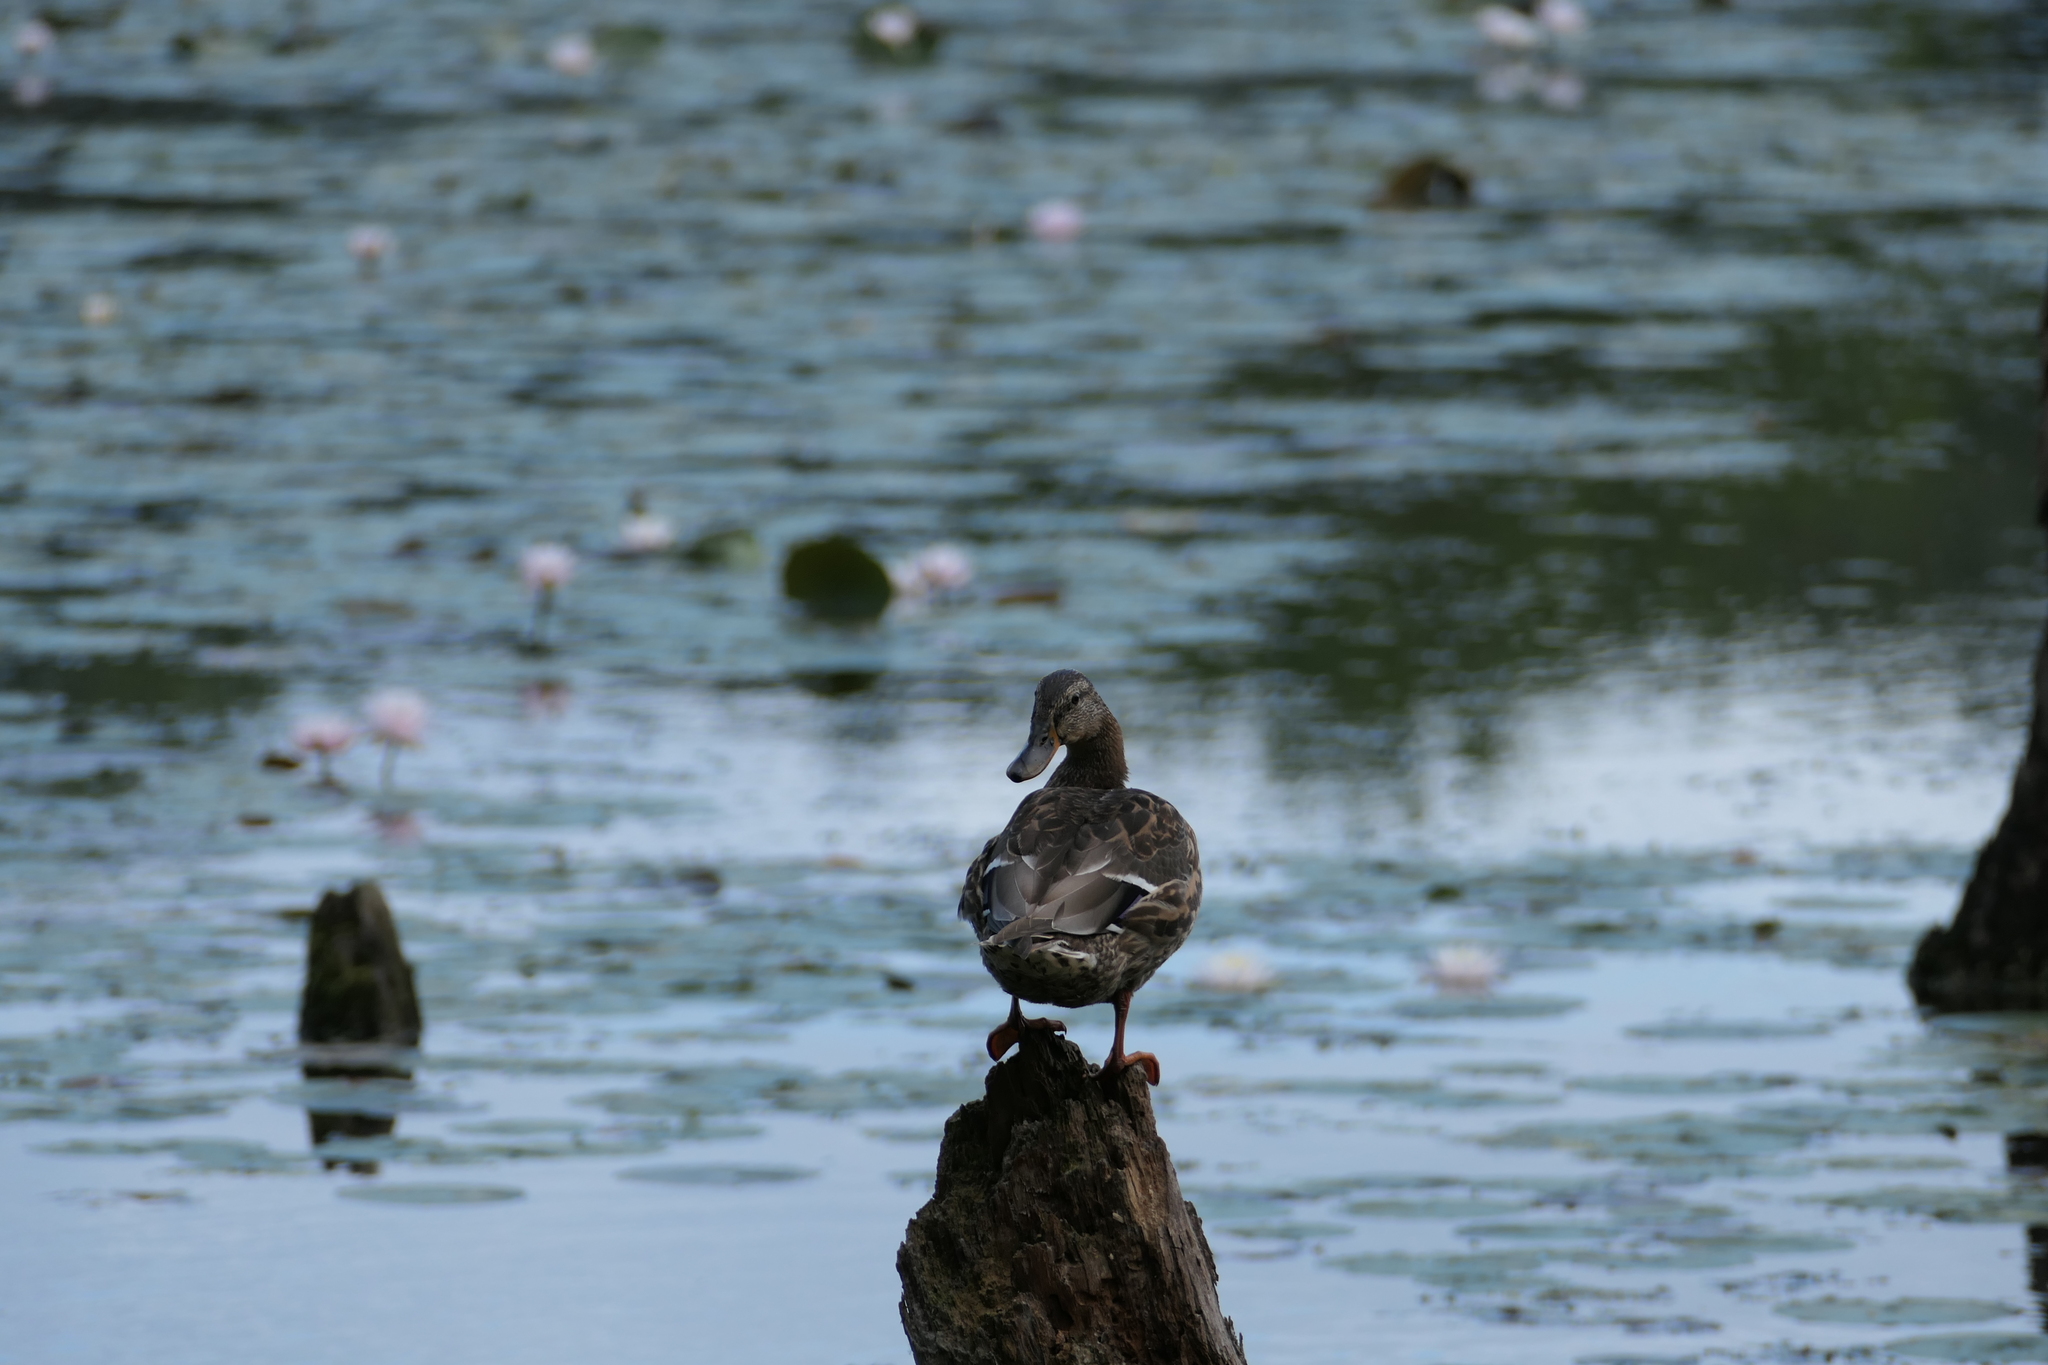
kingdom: Animalia
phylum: Chordata
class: Aves
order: Anseriformes
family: Anatidae
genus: Anas
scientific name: Anas platyrhynchos
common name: Mallard
